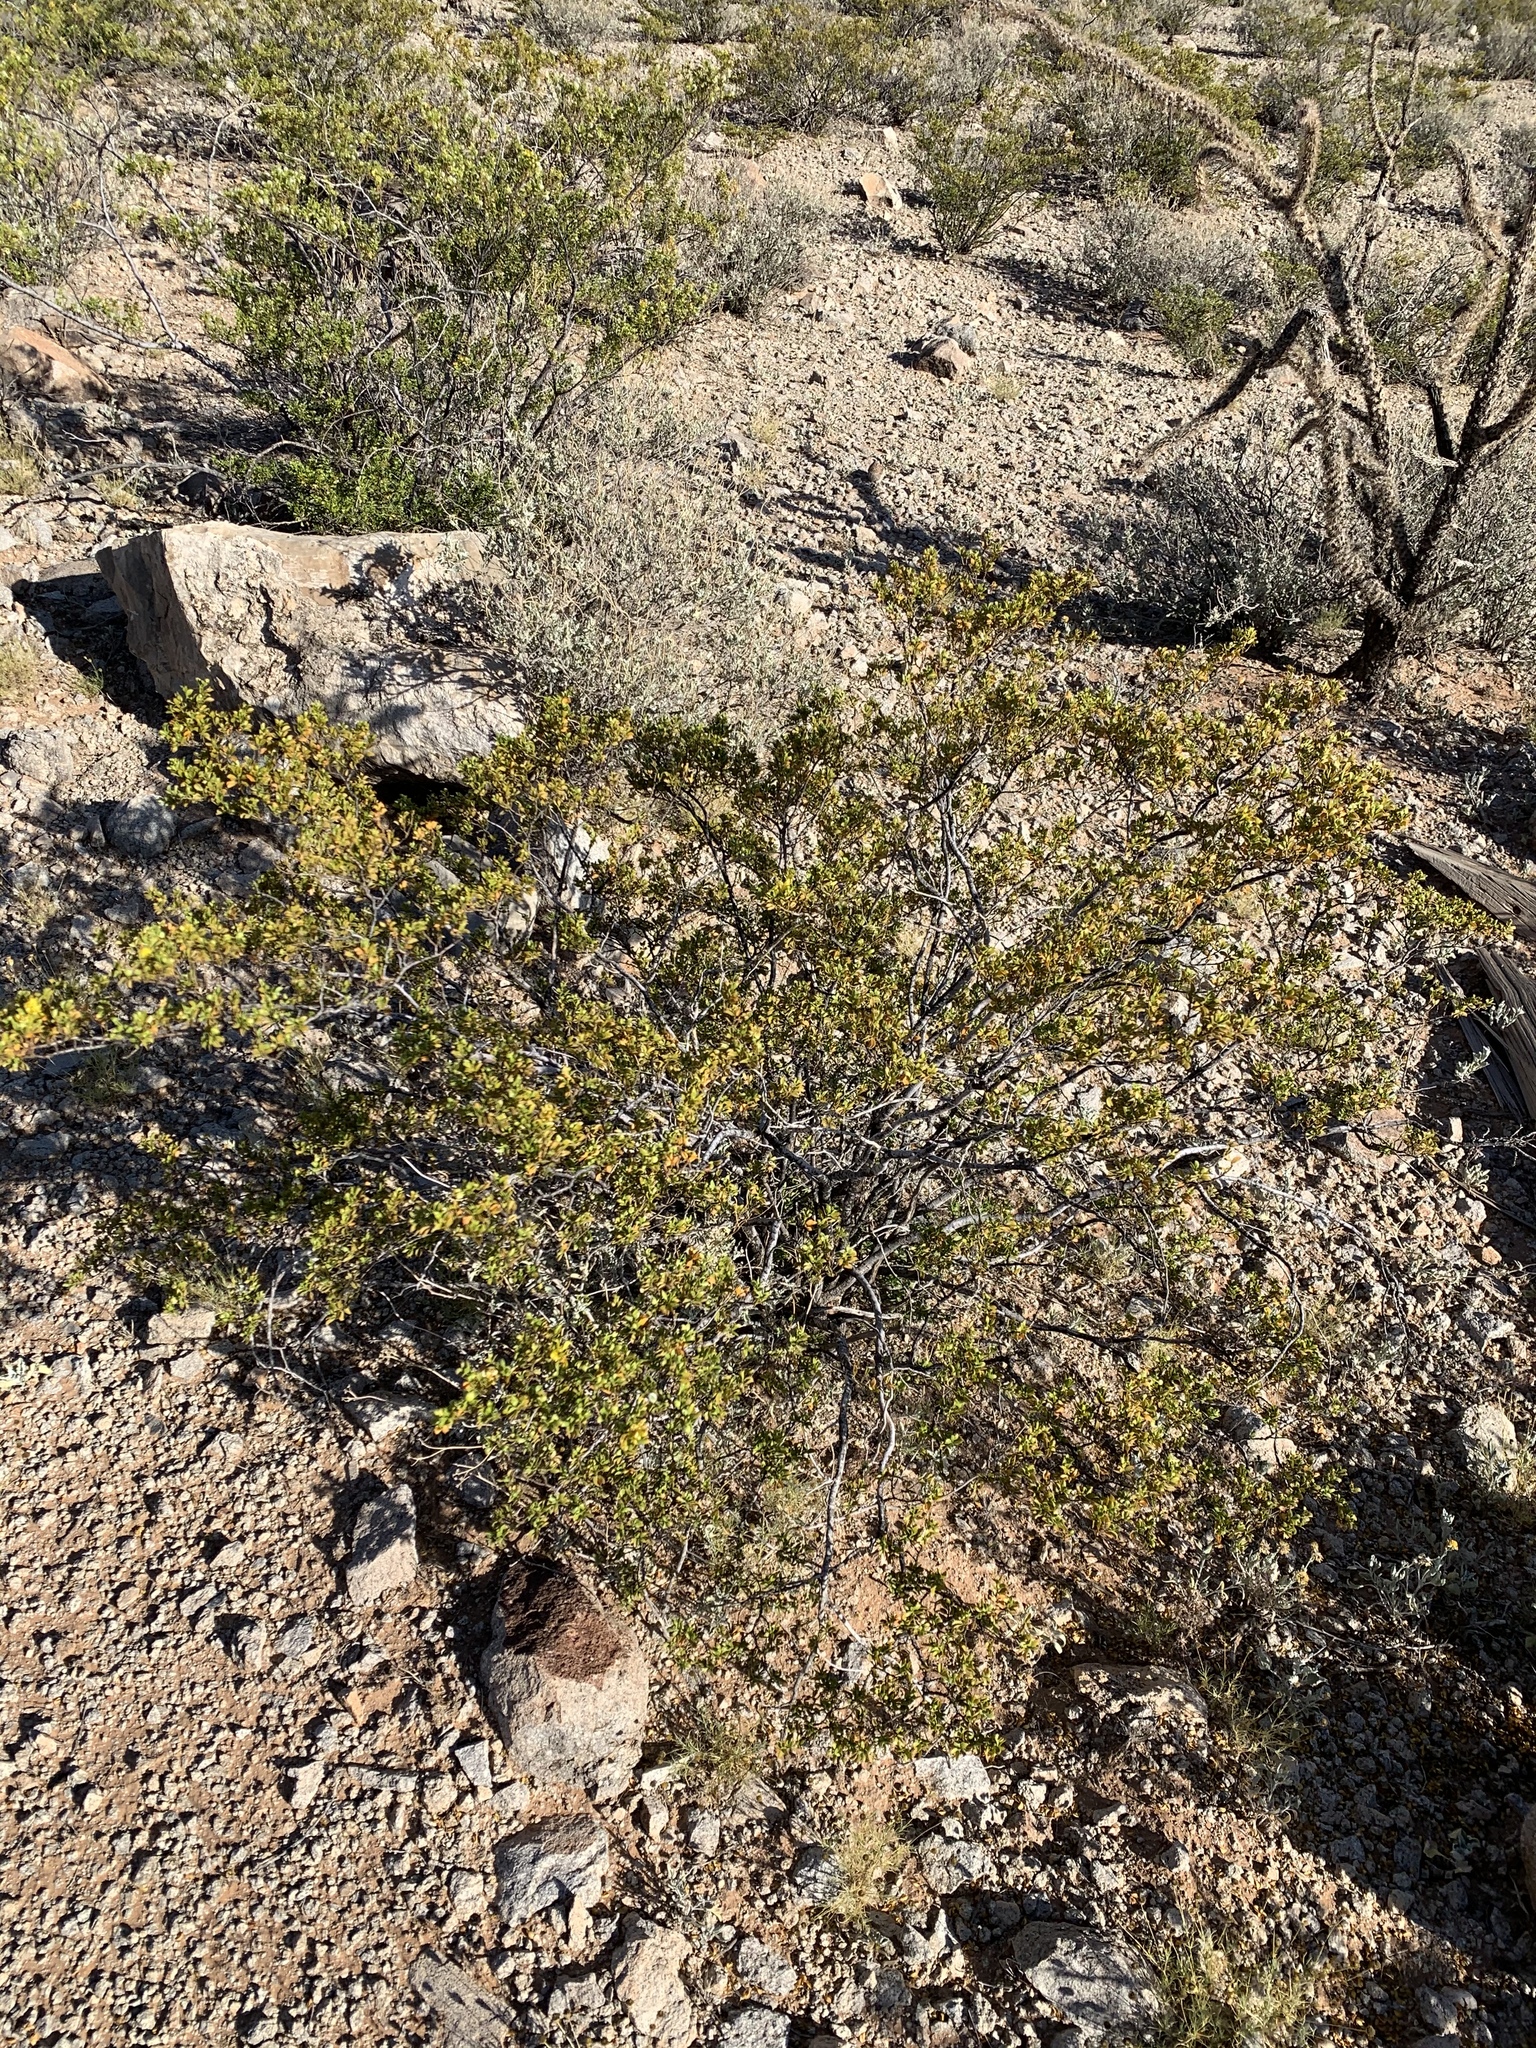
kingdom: Plantae
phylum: Tracheophyta
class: Magnoliopsida
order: Zygophyllales
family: Zygophyllaceae
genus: Larrea
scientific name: Larrea tridentata
